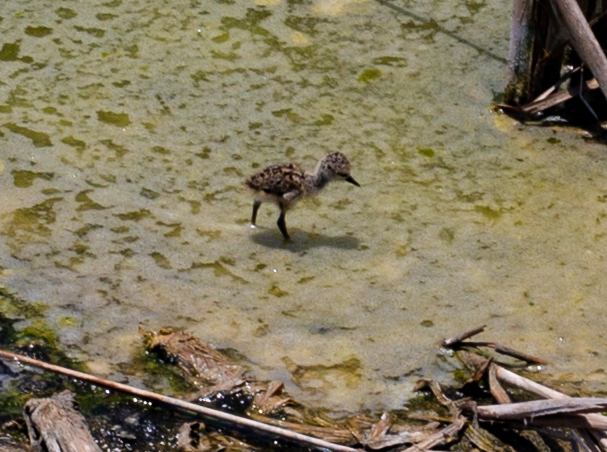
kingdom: Animalia
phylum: Chordata
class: Aves
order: Charadriiformes
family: Recurvirostridae
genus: Himantopus
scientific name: Himantopus mexicanus
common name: Black-necked stilt
